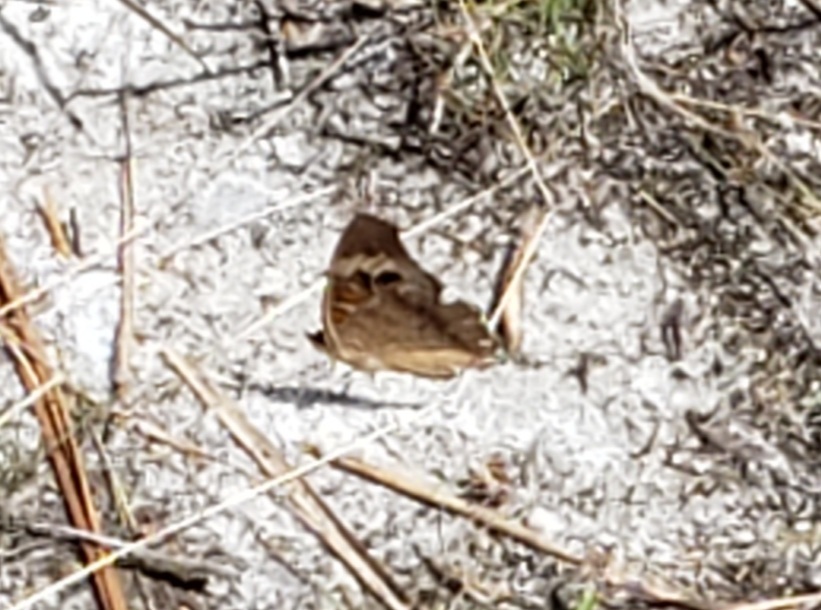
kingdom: Animalia
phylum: Arthropoda
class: Insecta
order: Lepidoptera
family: Nymphalidae
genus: Junonia
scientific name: Junonia coenia
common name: Common buckeye
